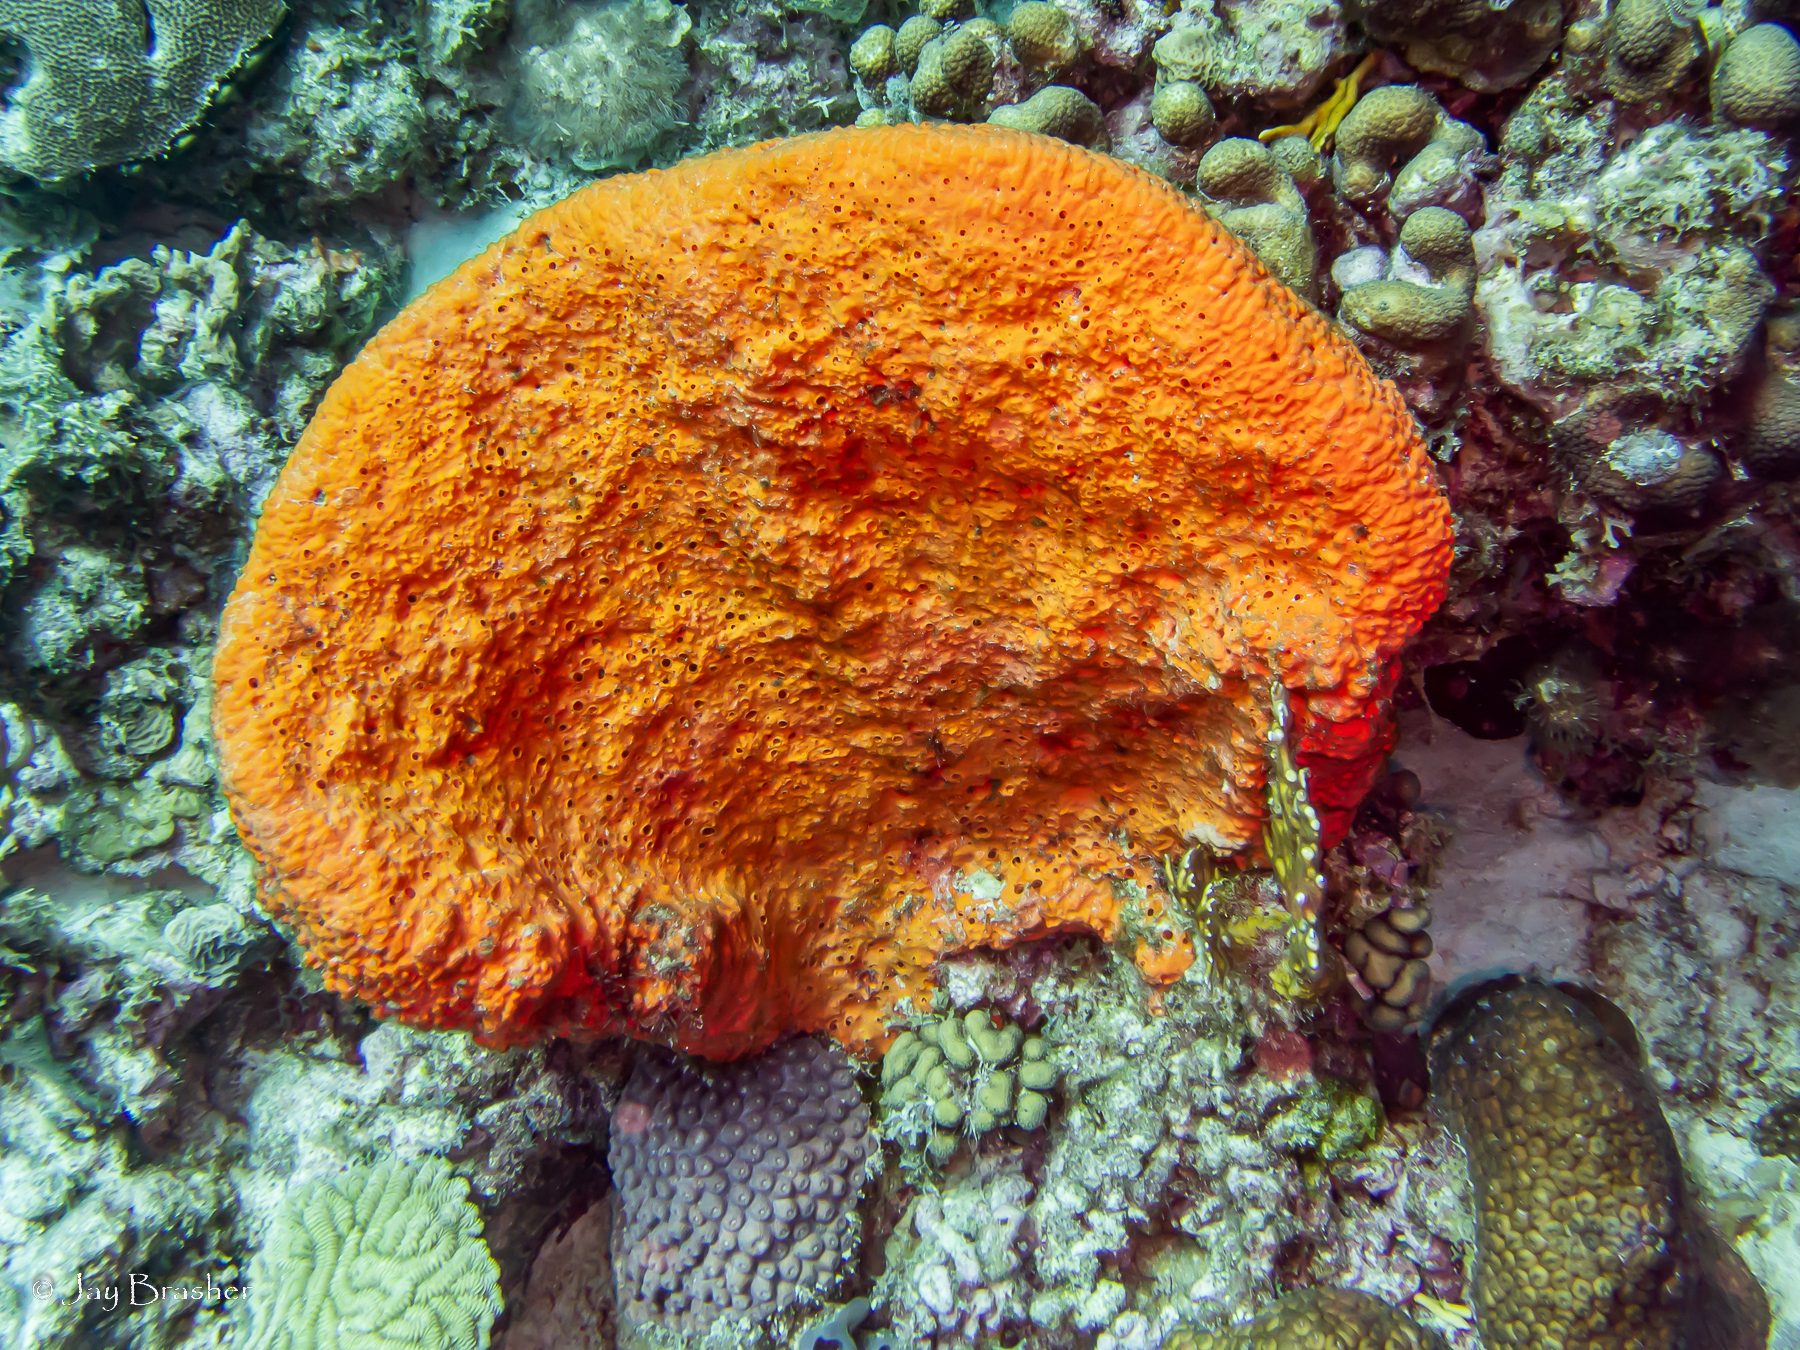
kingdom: Animalia
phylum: Porifera
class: Demospongiae
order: Agelasida
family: Agelasidae
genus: Agelas
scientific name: Agelas clathrodes
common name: Orange elephant ear sponge
